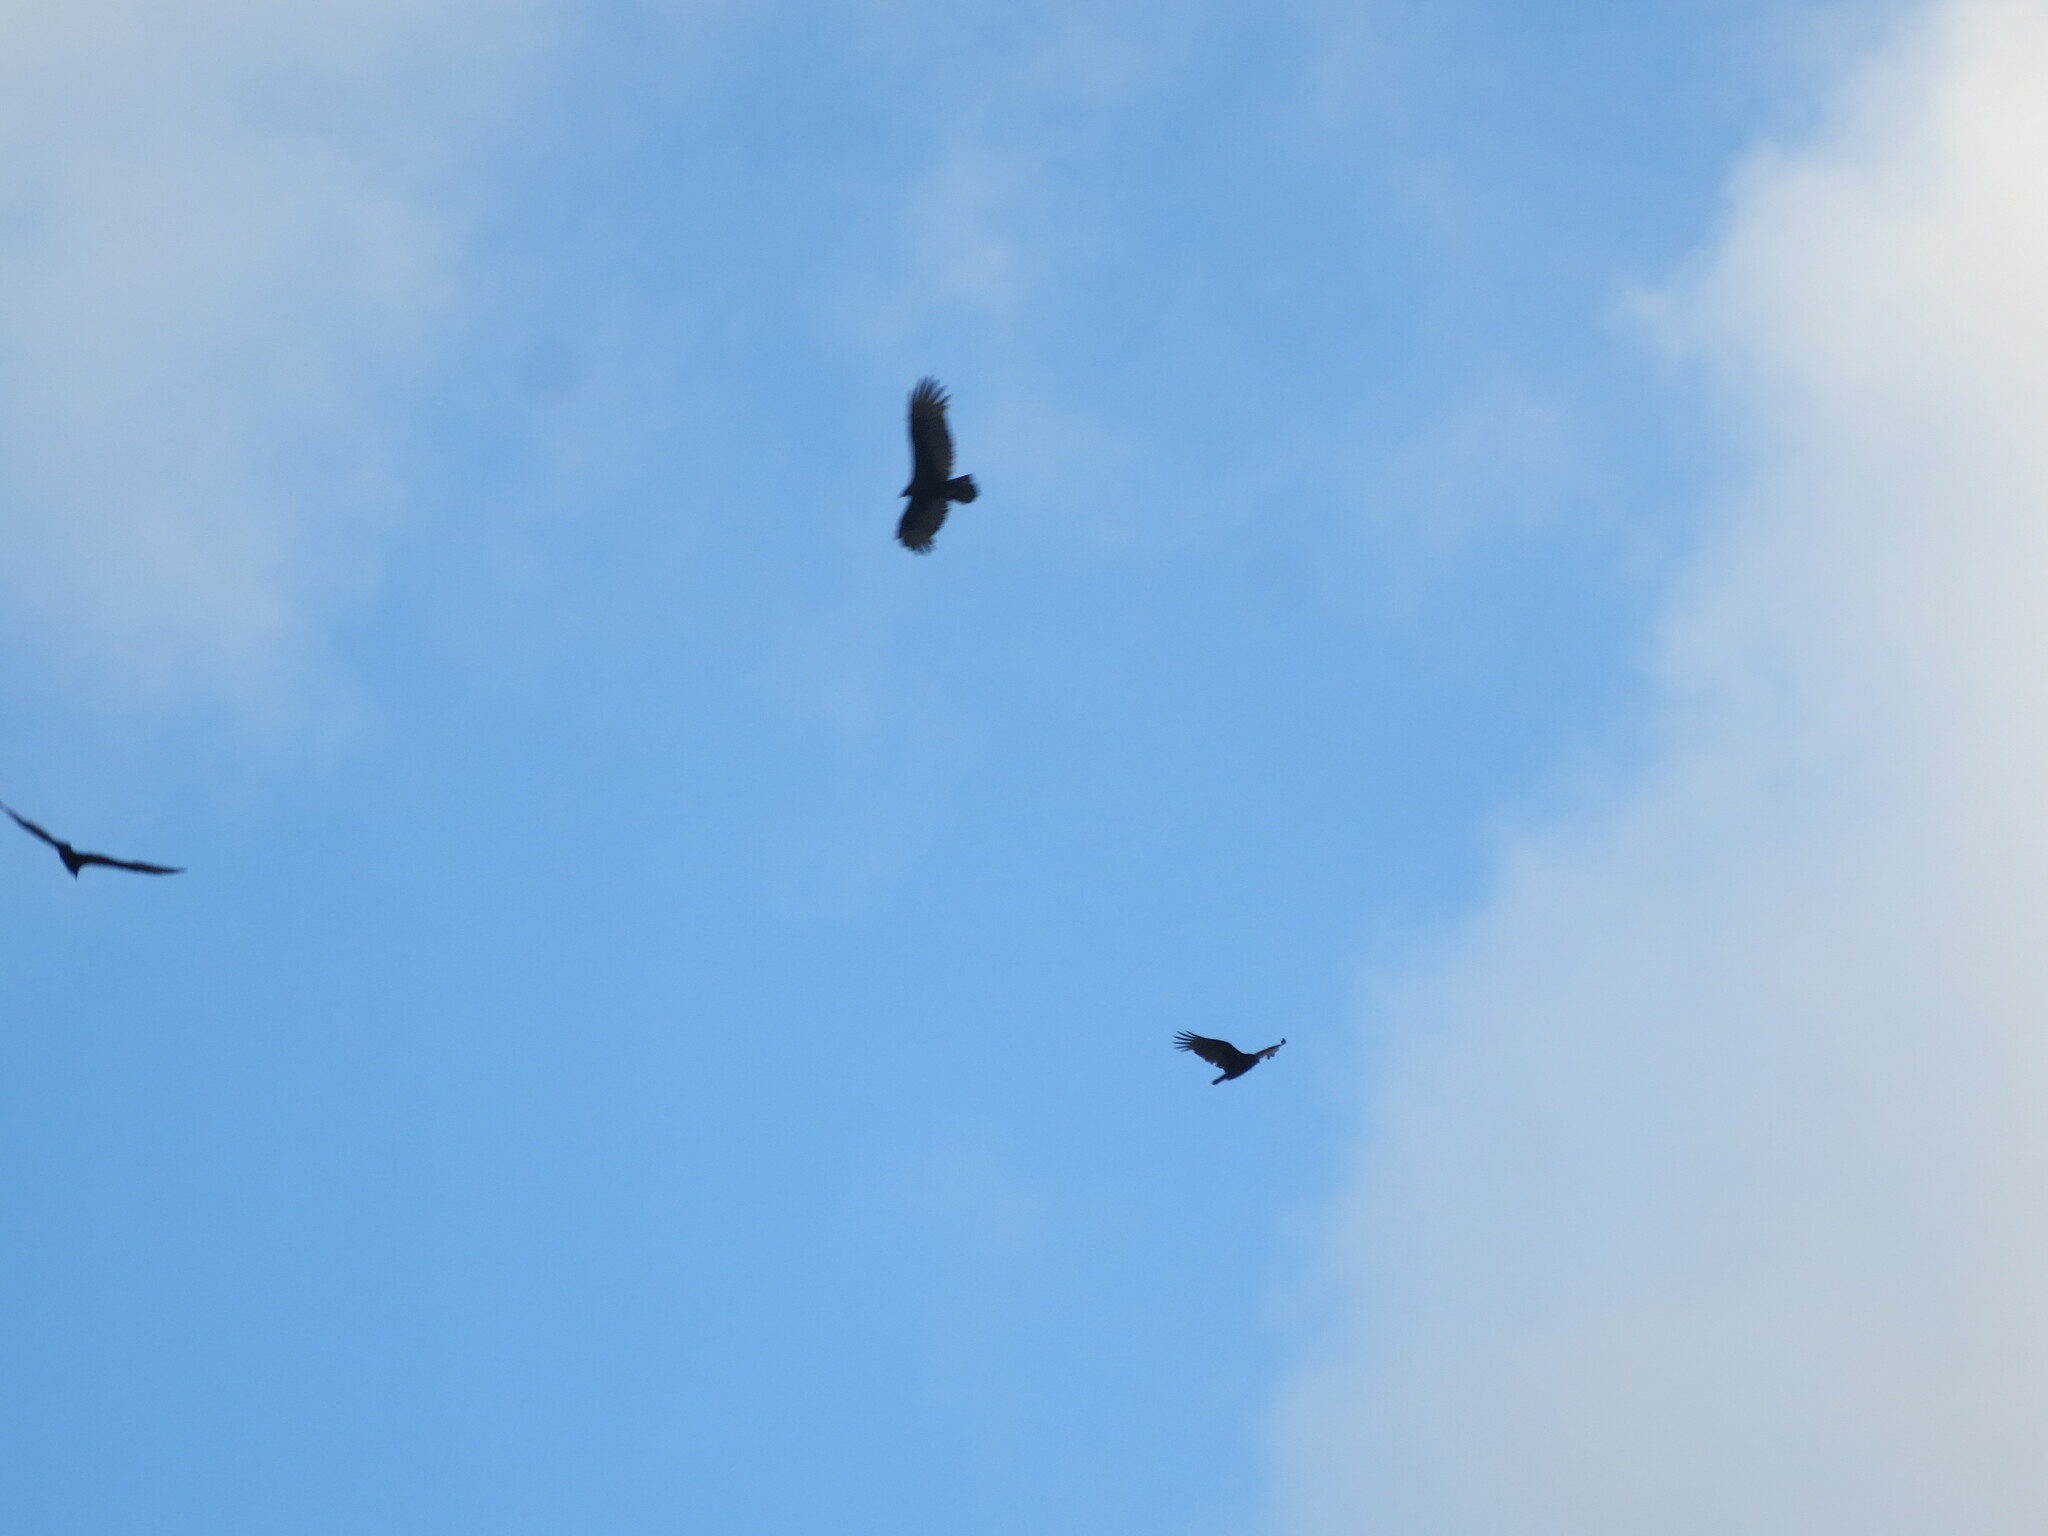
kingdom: Animalia
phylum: Chordata
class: Aves
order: Accipitriformes
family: Cathartidae
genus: Cathartes
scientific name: Cathartes aura
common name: Turkey vulture
